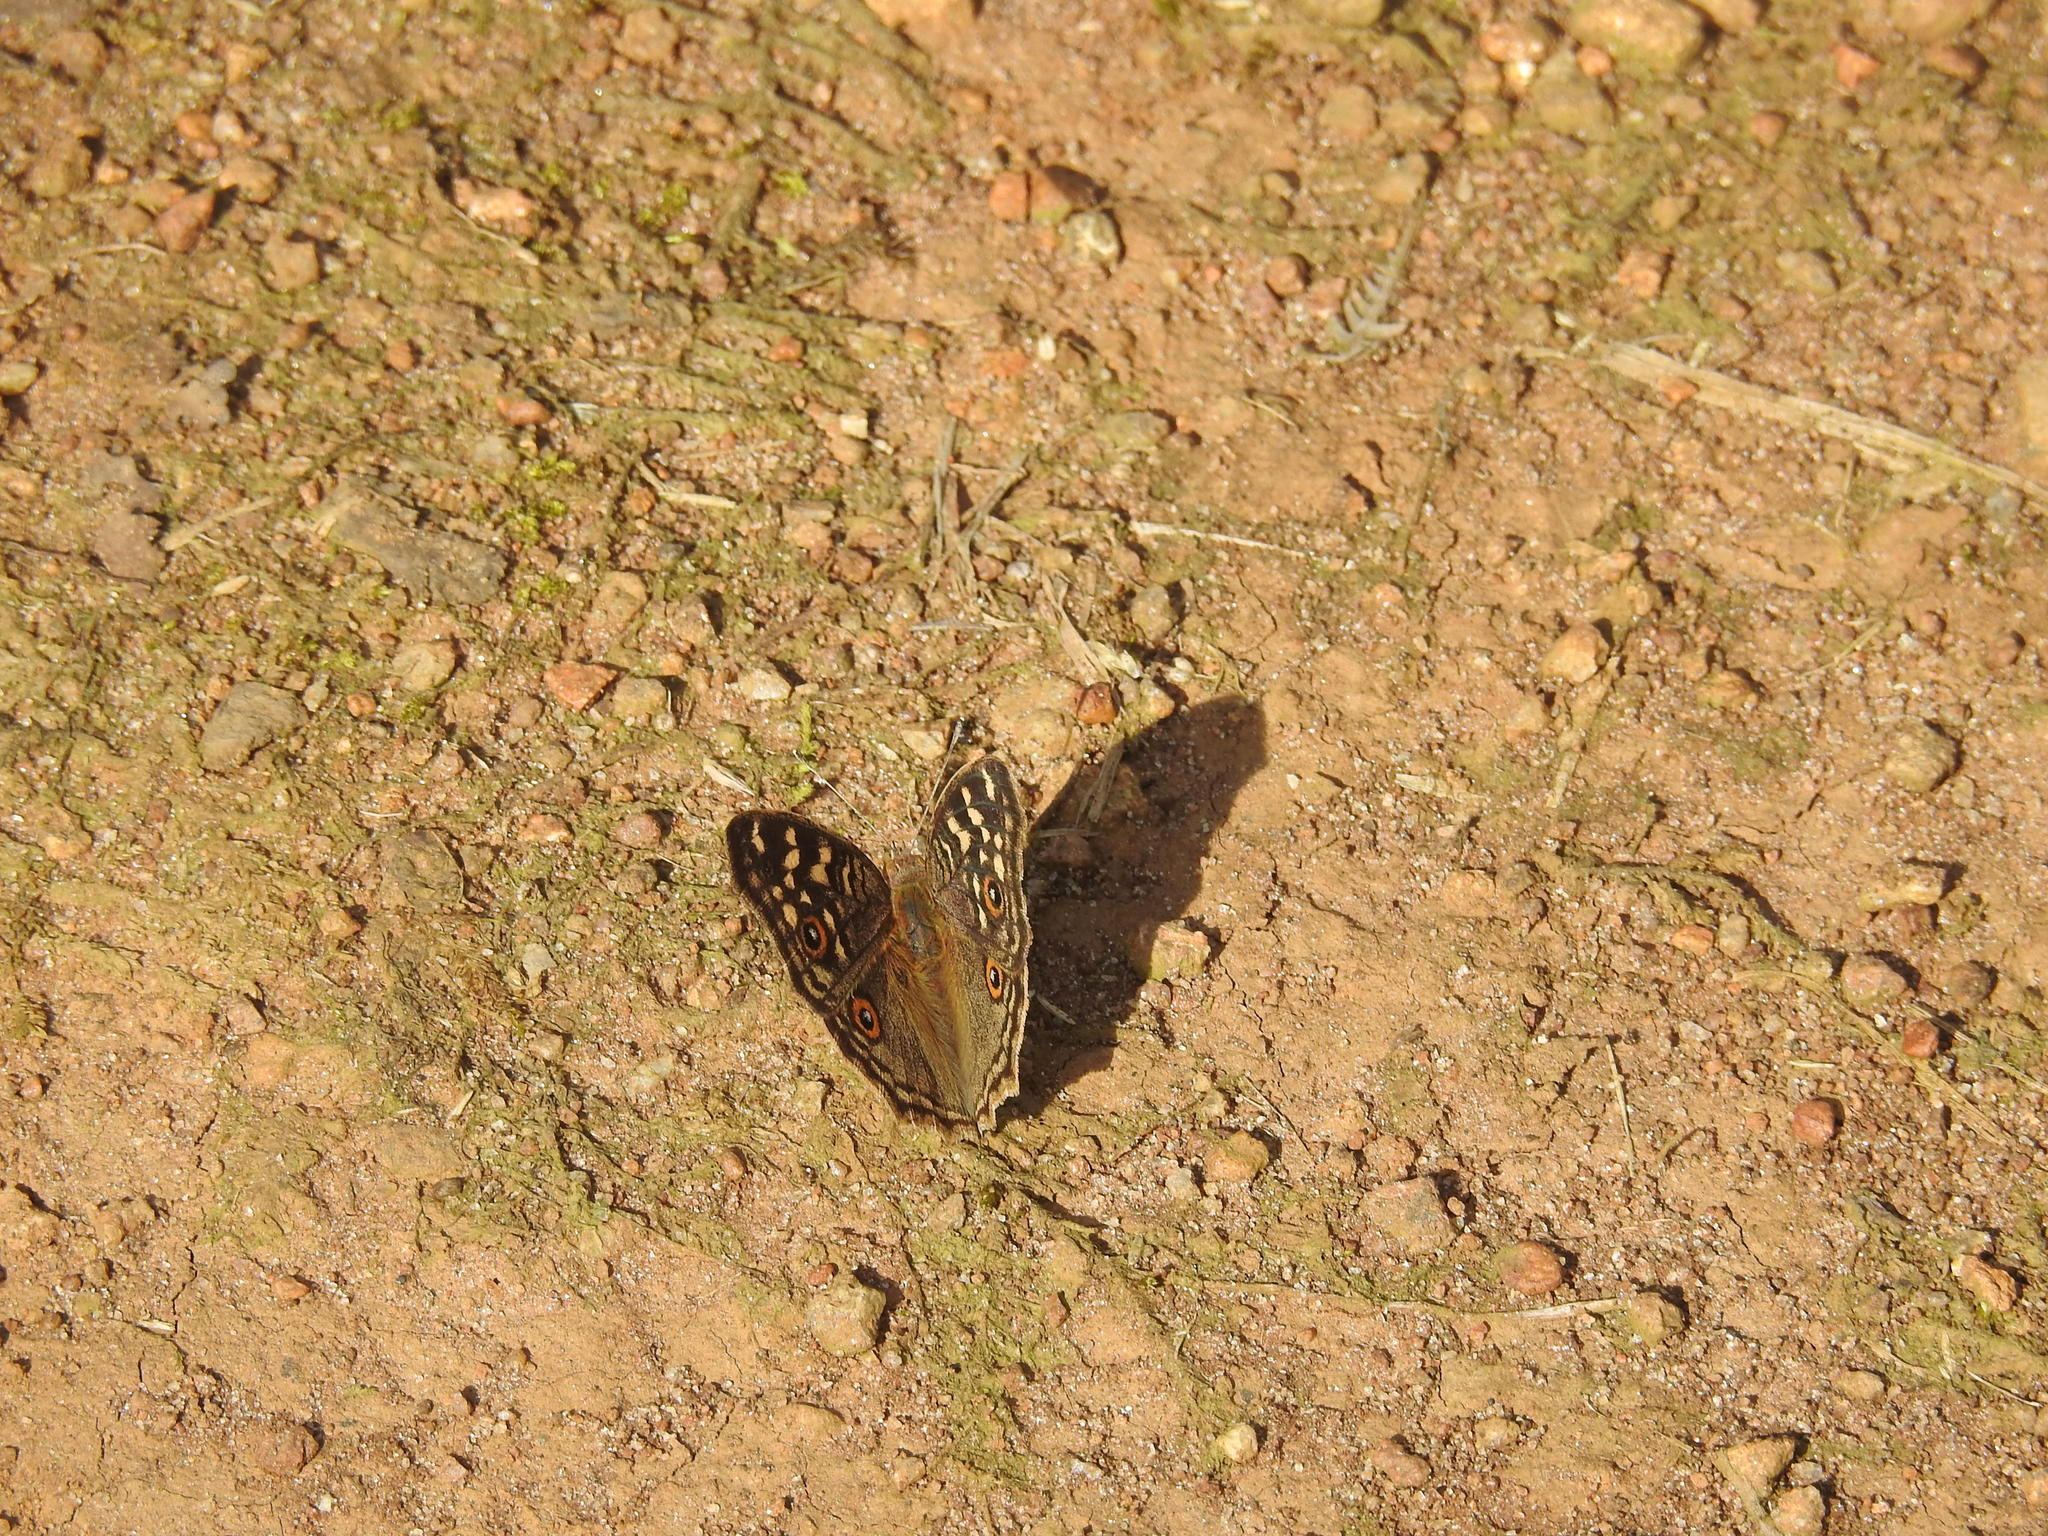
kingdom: Animalia
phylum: Arthropoda
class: Insecta
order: Lepidoptera
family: Nymphalidae
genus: Junonia
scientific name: Junonia lemonias
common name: Lemon pansy
